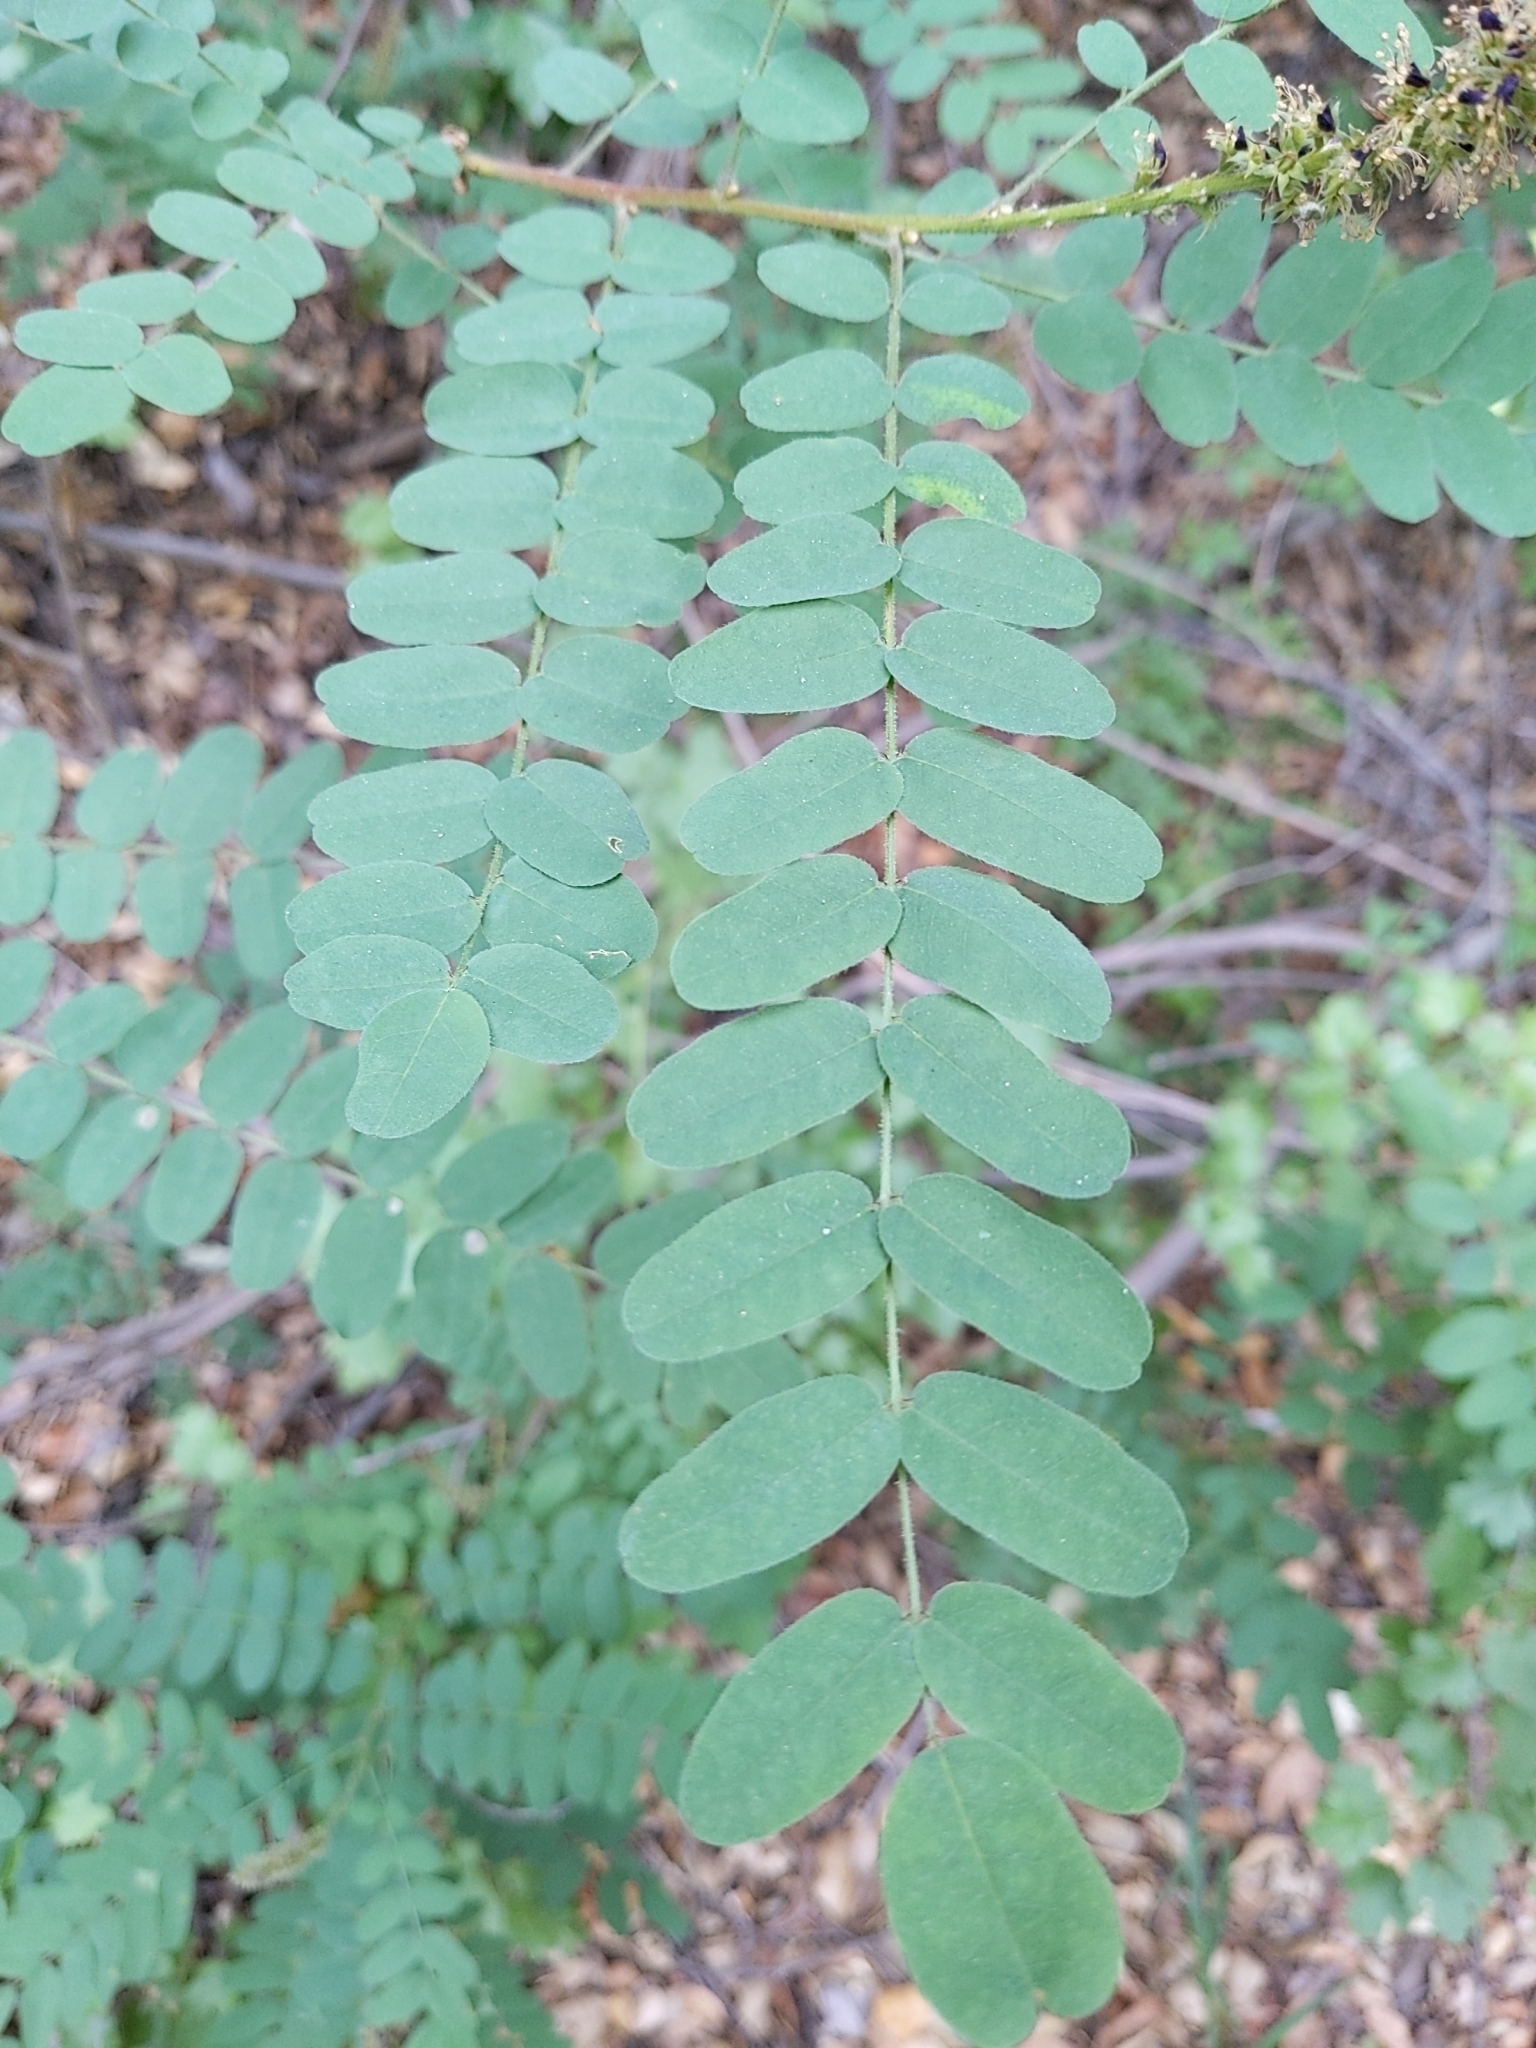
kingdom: Plantae
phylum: Tracheophyta
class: Magnoliopsida
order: Fabales
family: Fabaceae
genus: Amorpha
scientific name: Amorpha californica
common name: California indigobush
